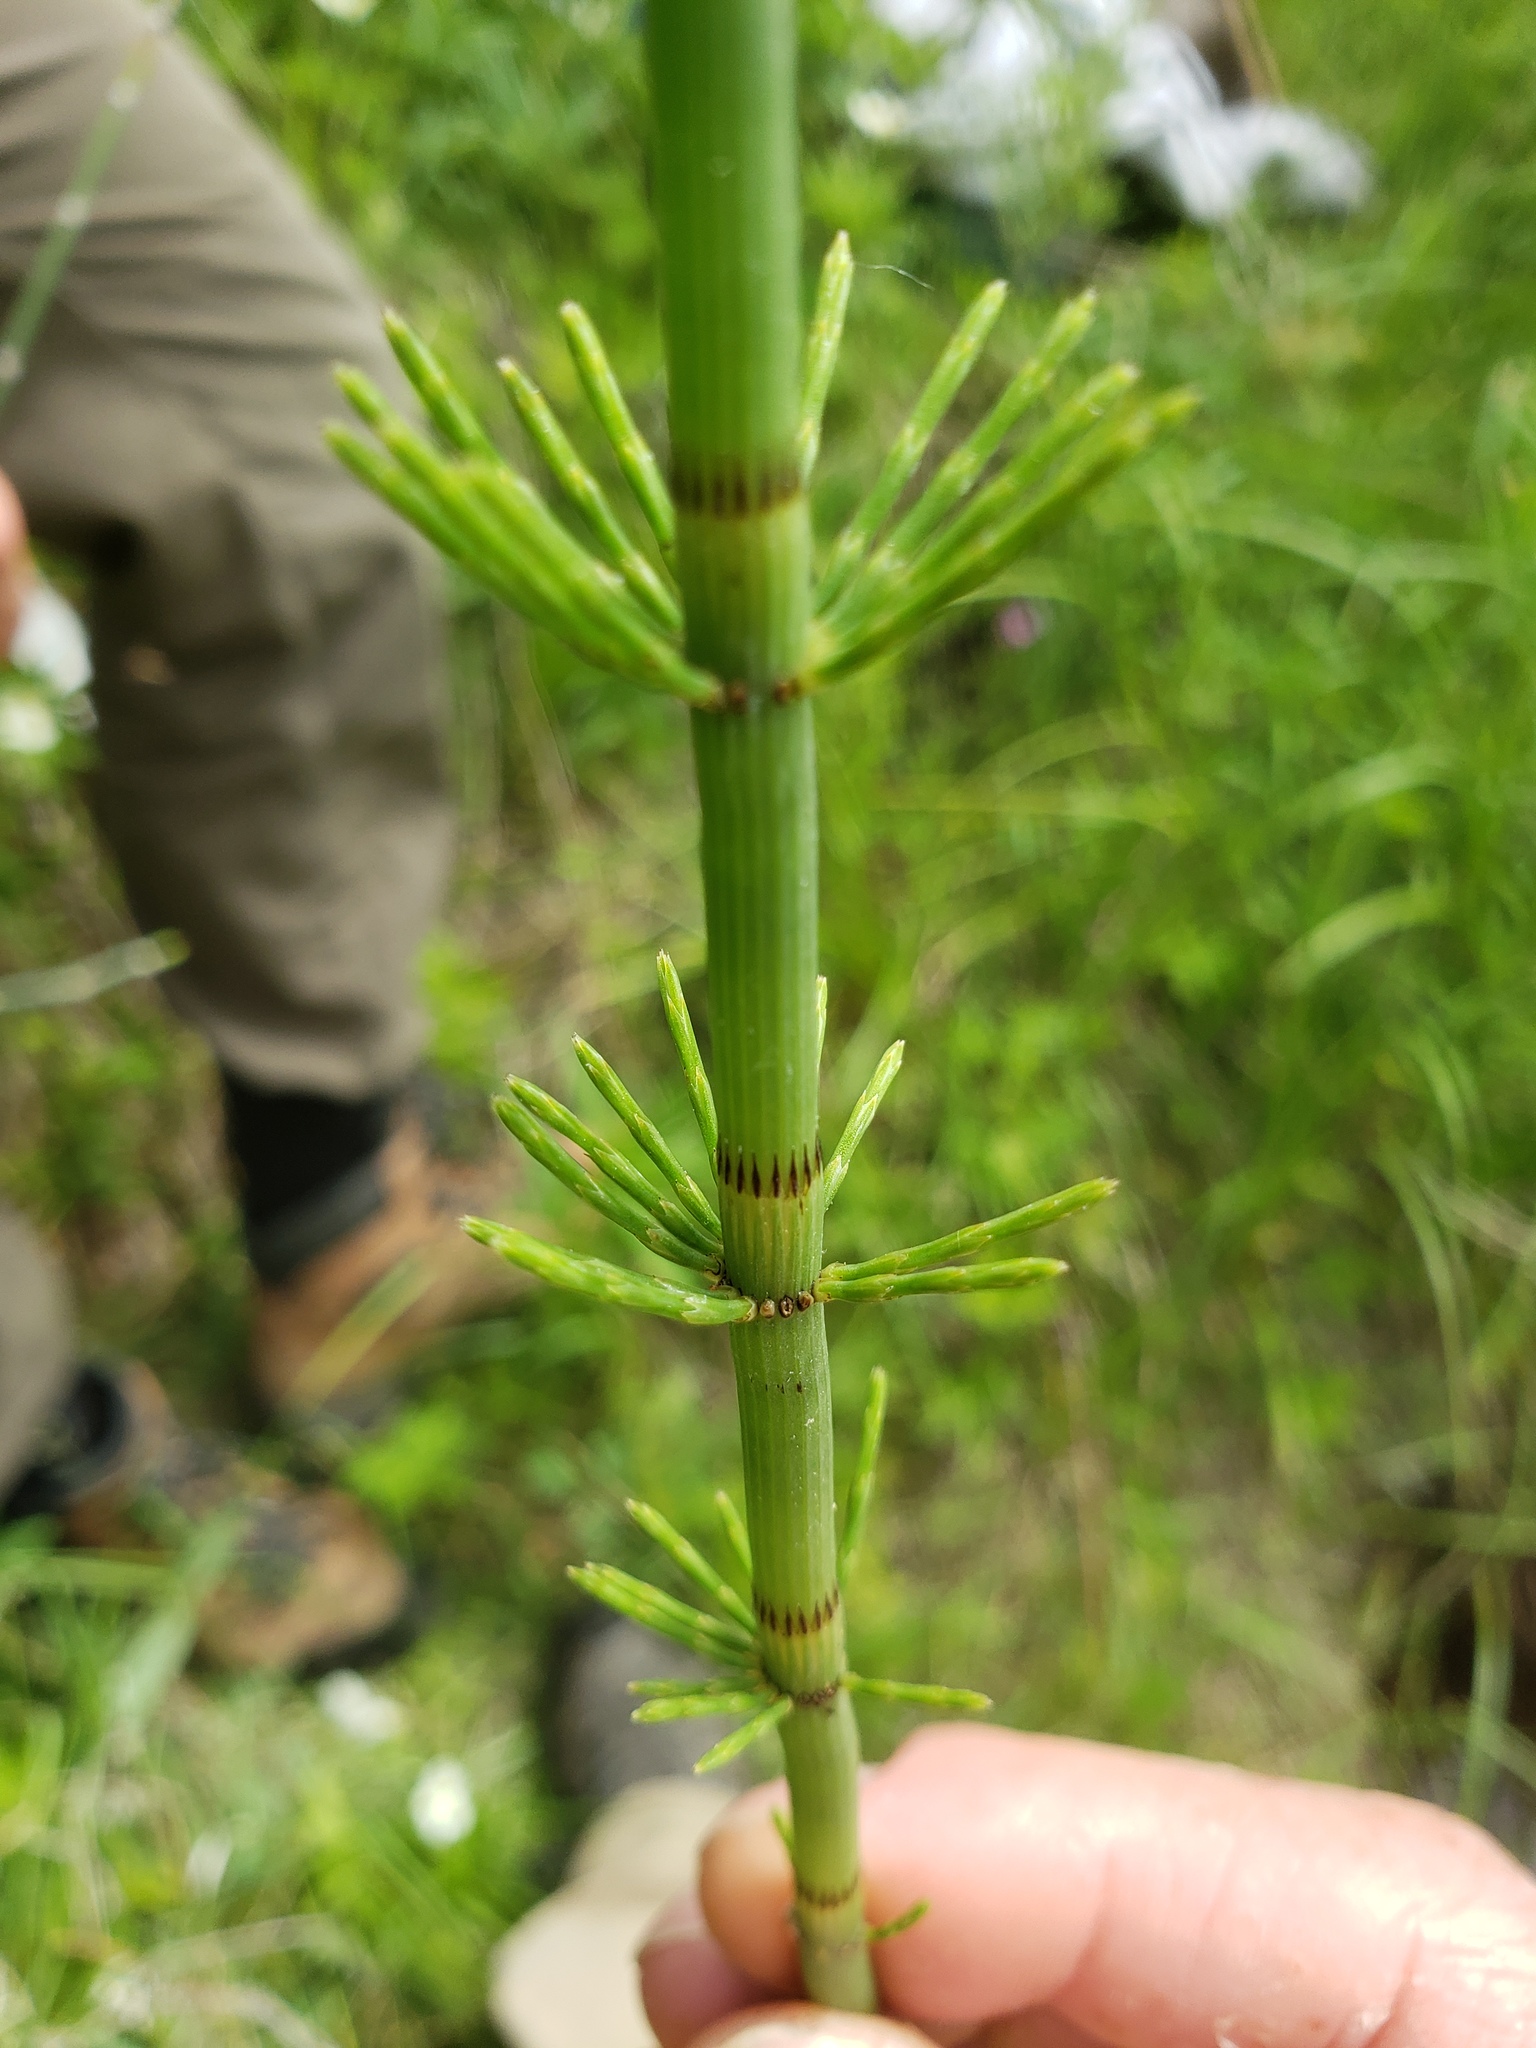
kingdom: Plantae
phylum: Tracheophyta
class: Polypodiopsida
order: Equisetales
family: Equisetaceae
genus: Equisetum
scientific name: Equisetum fluviatile
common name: Water horsetail
